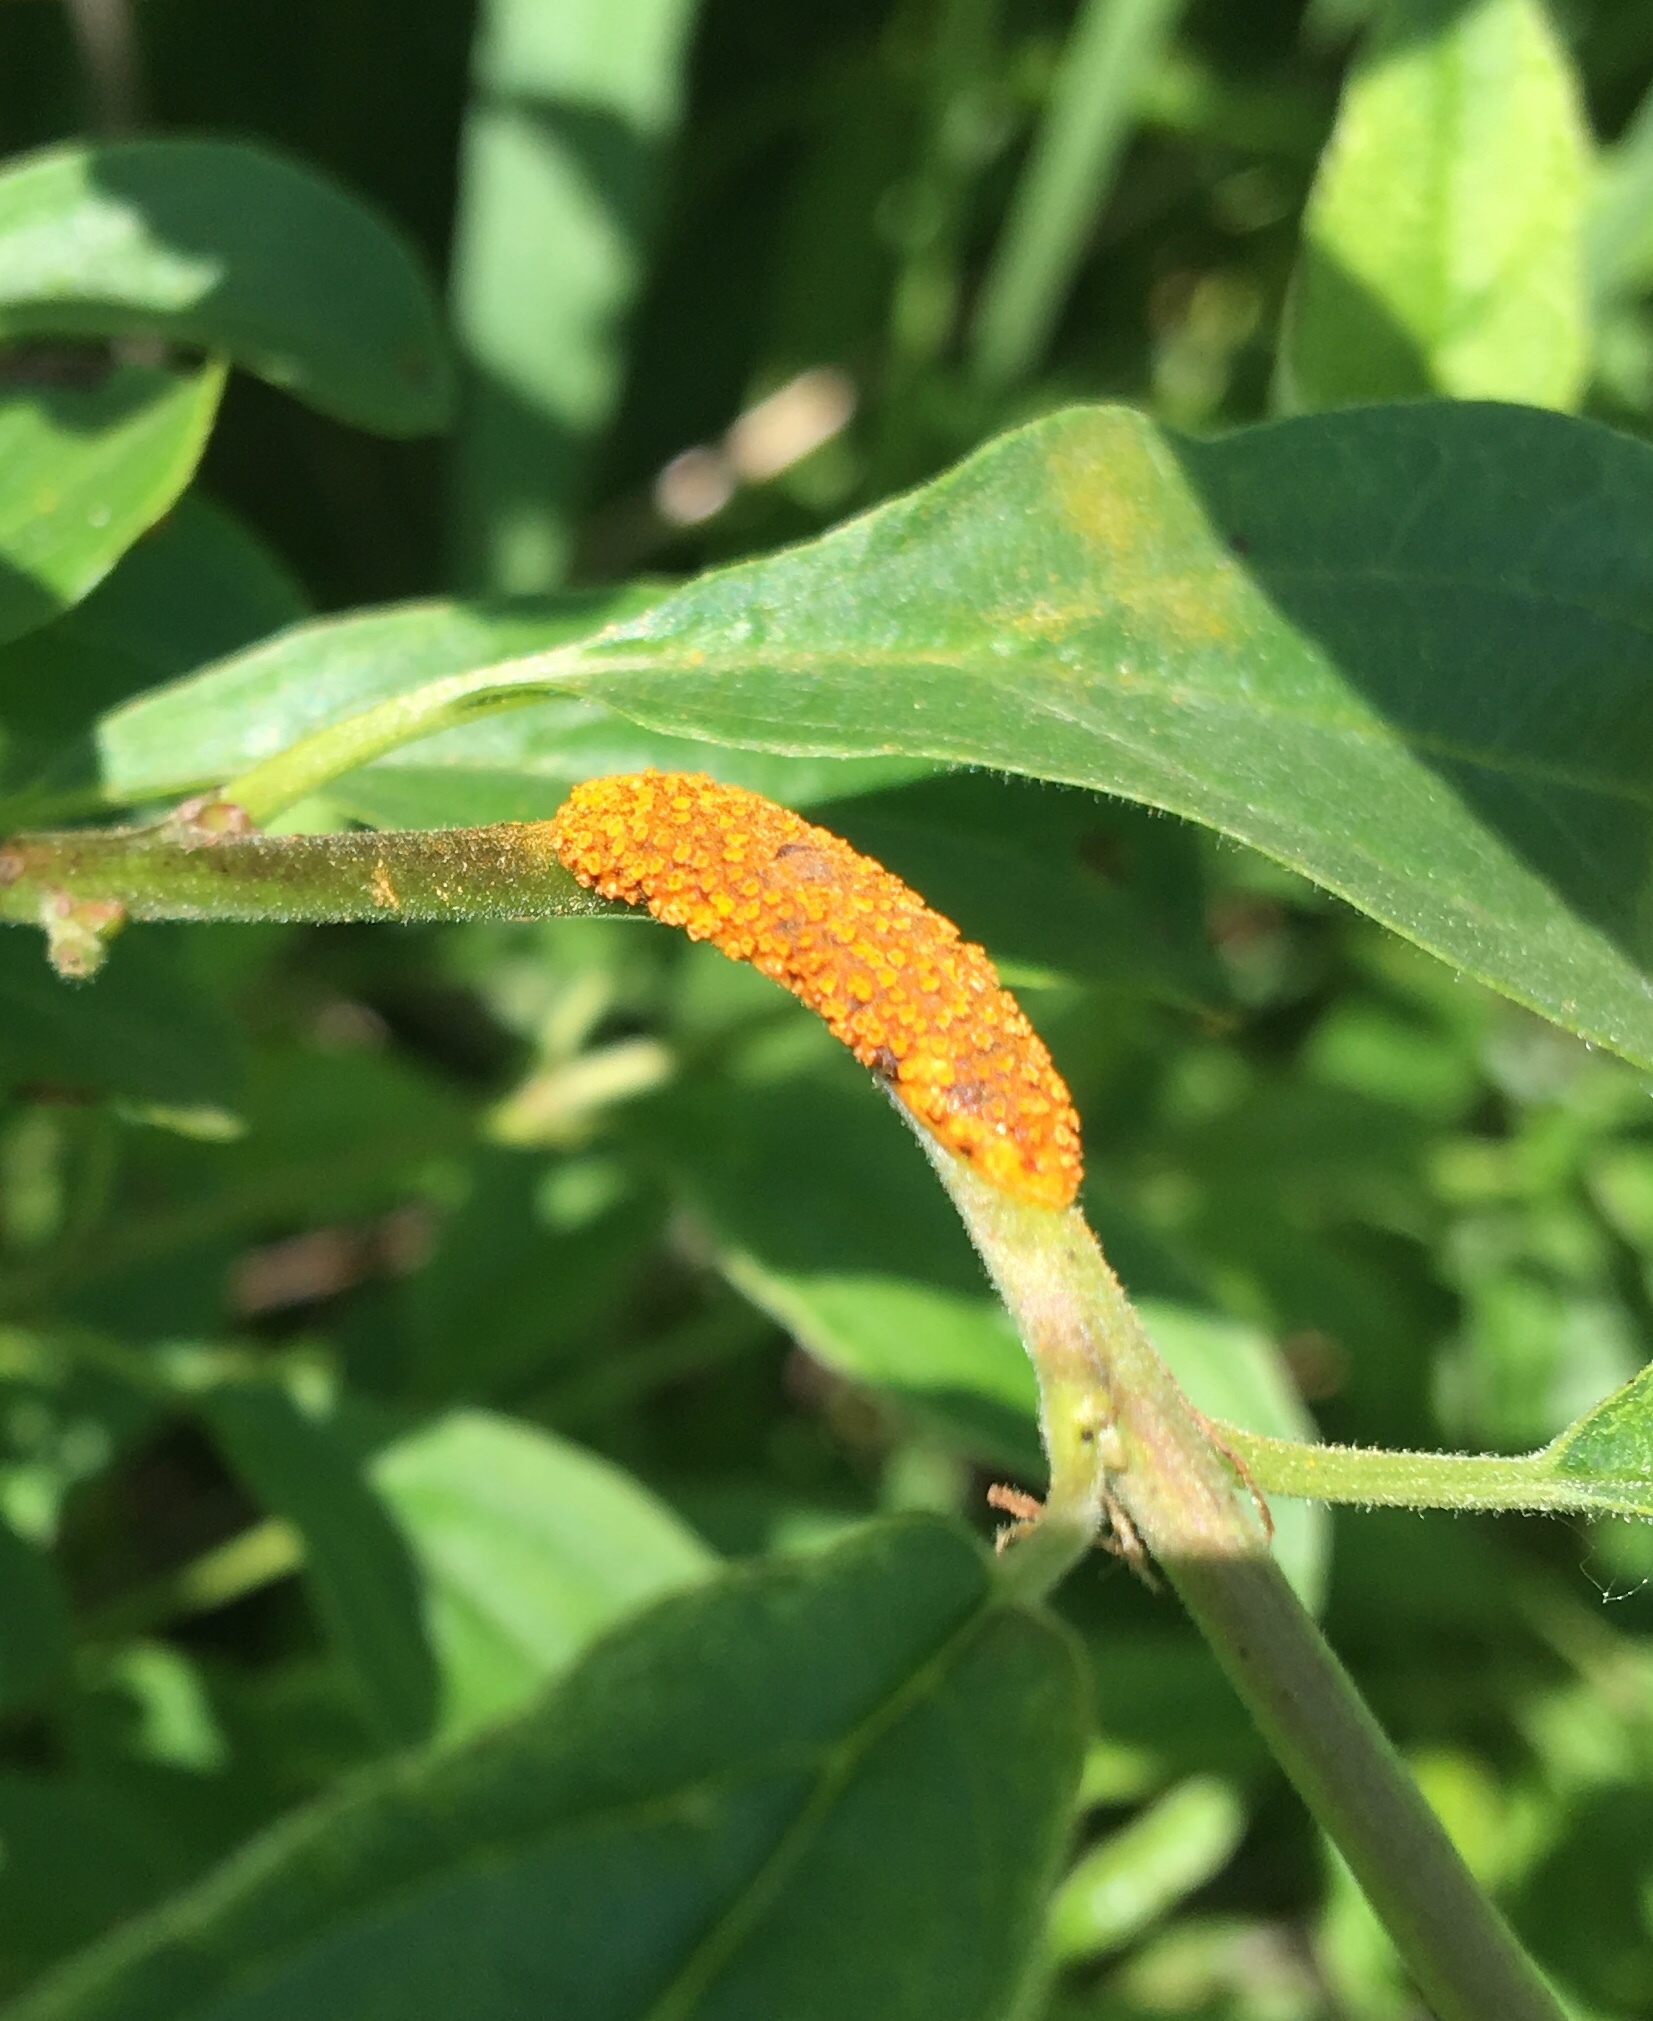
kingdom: Fungi
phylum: Basidiomycota
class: Pucciniomycetes
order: Pucciniales
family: Pucciniaceae
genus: Puccinia
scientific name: Puccinia coronata
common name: Crown rust
